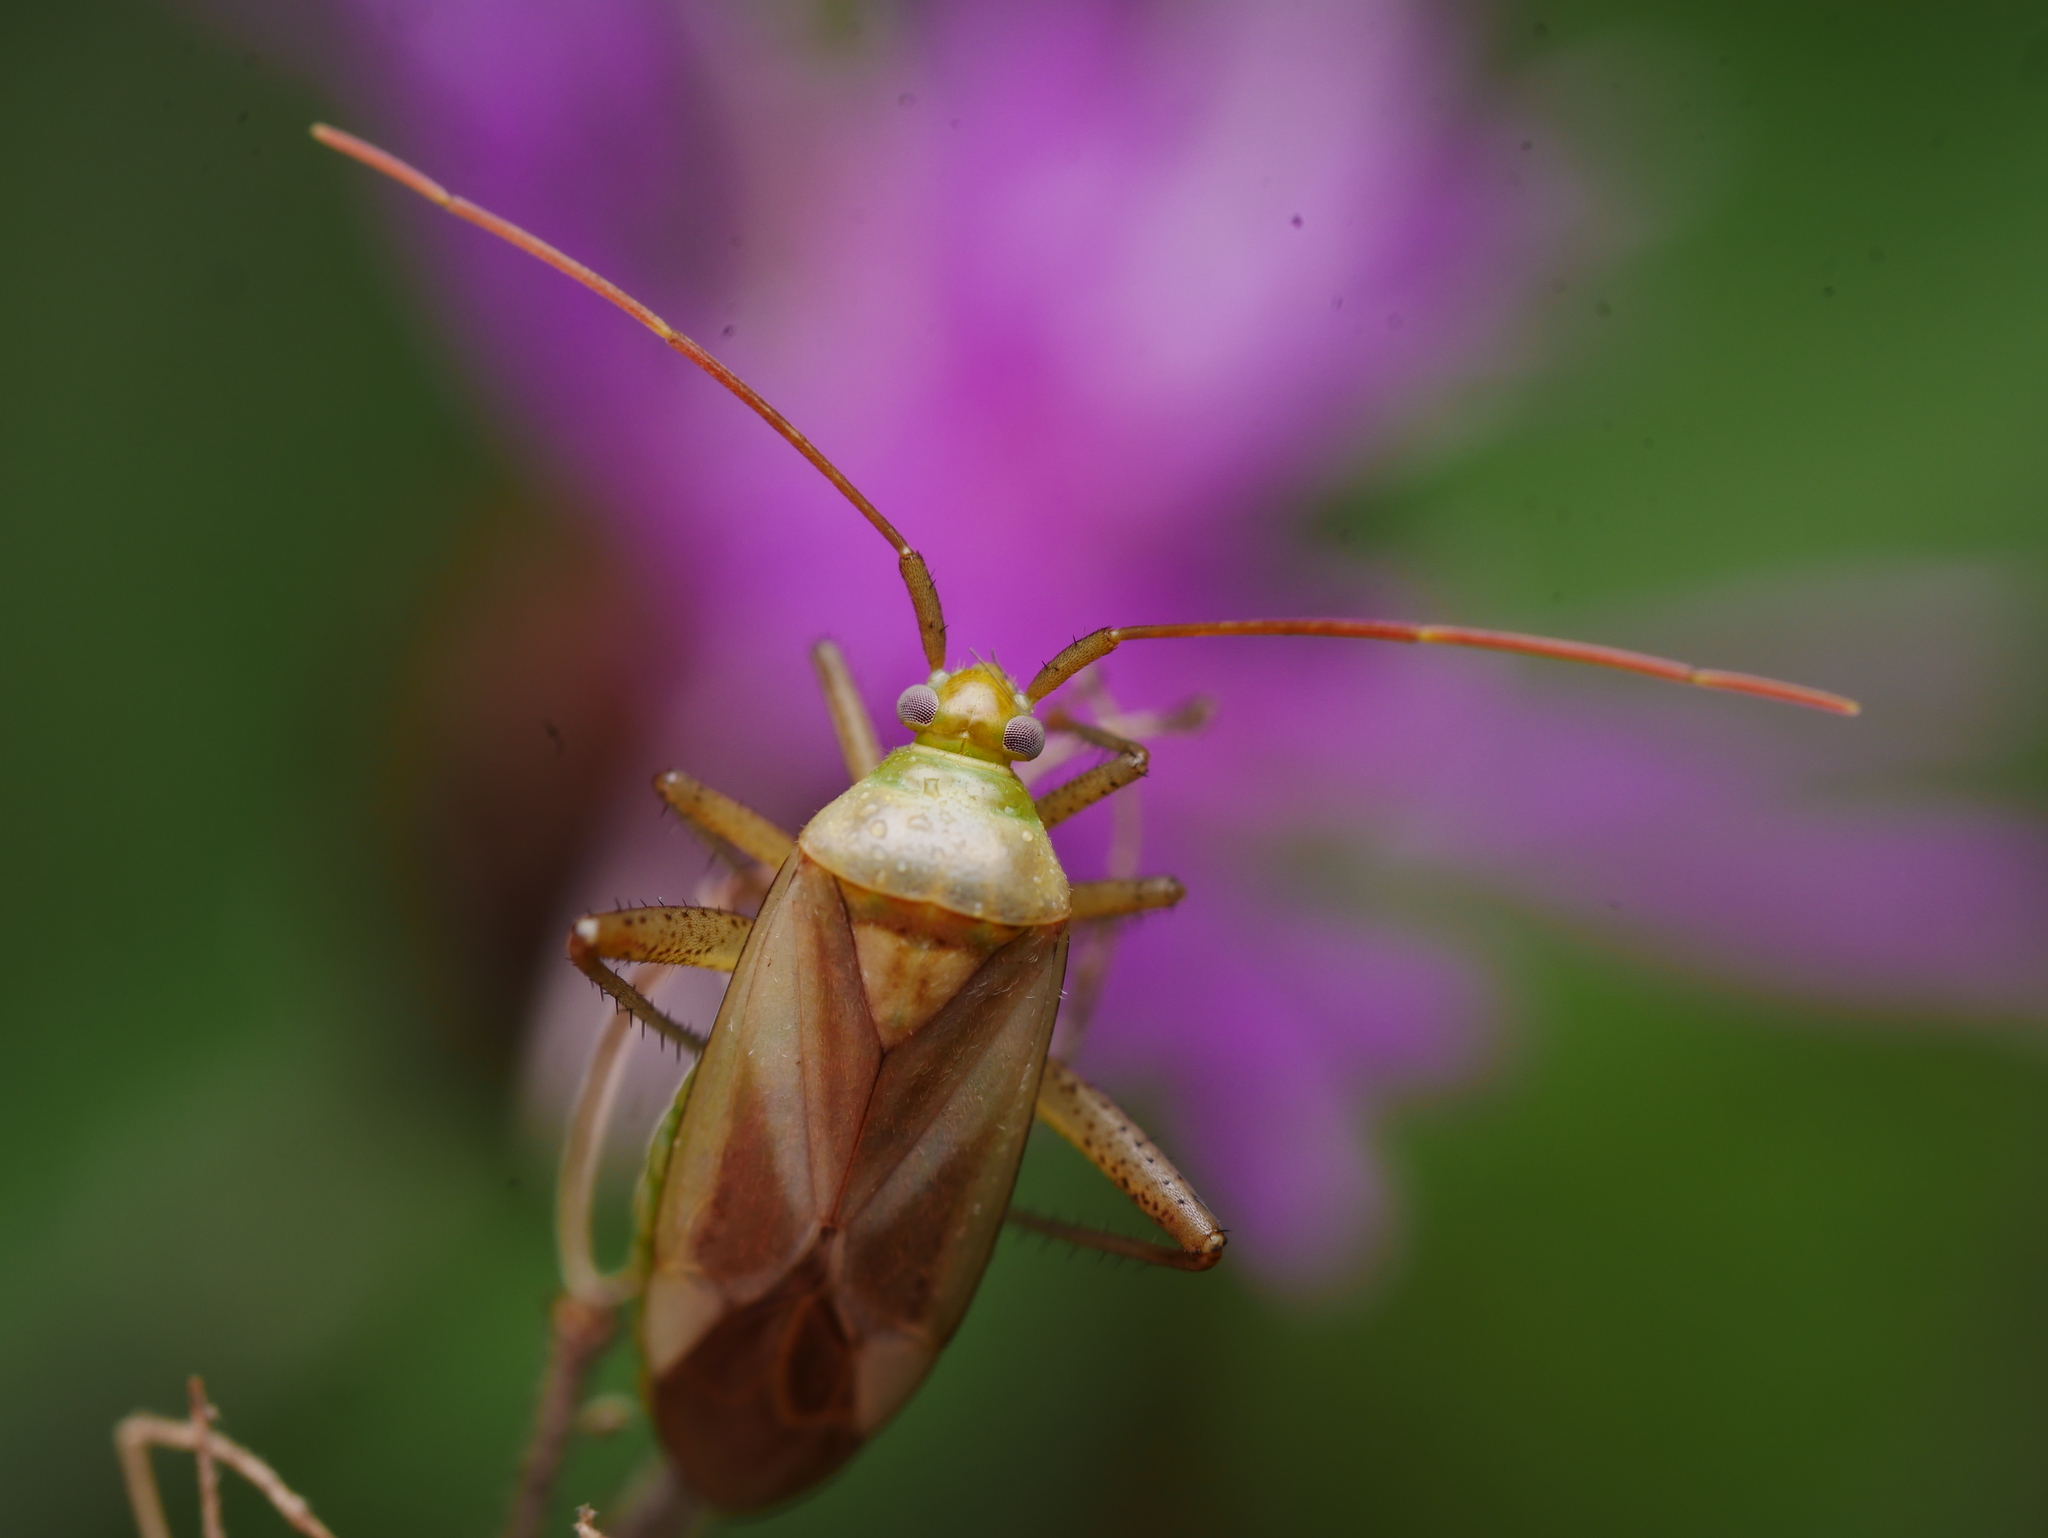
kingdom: Animalia
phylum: Arthropoda
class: Insecta
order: Hemiptera
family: Miridae
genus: Adelphocoris
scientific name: Adelphocoris lineolatus
